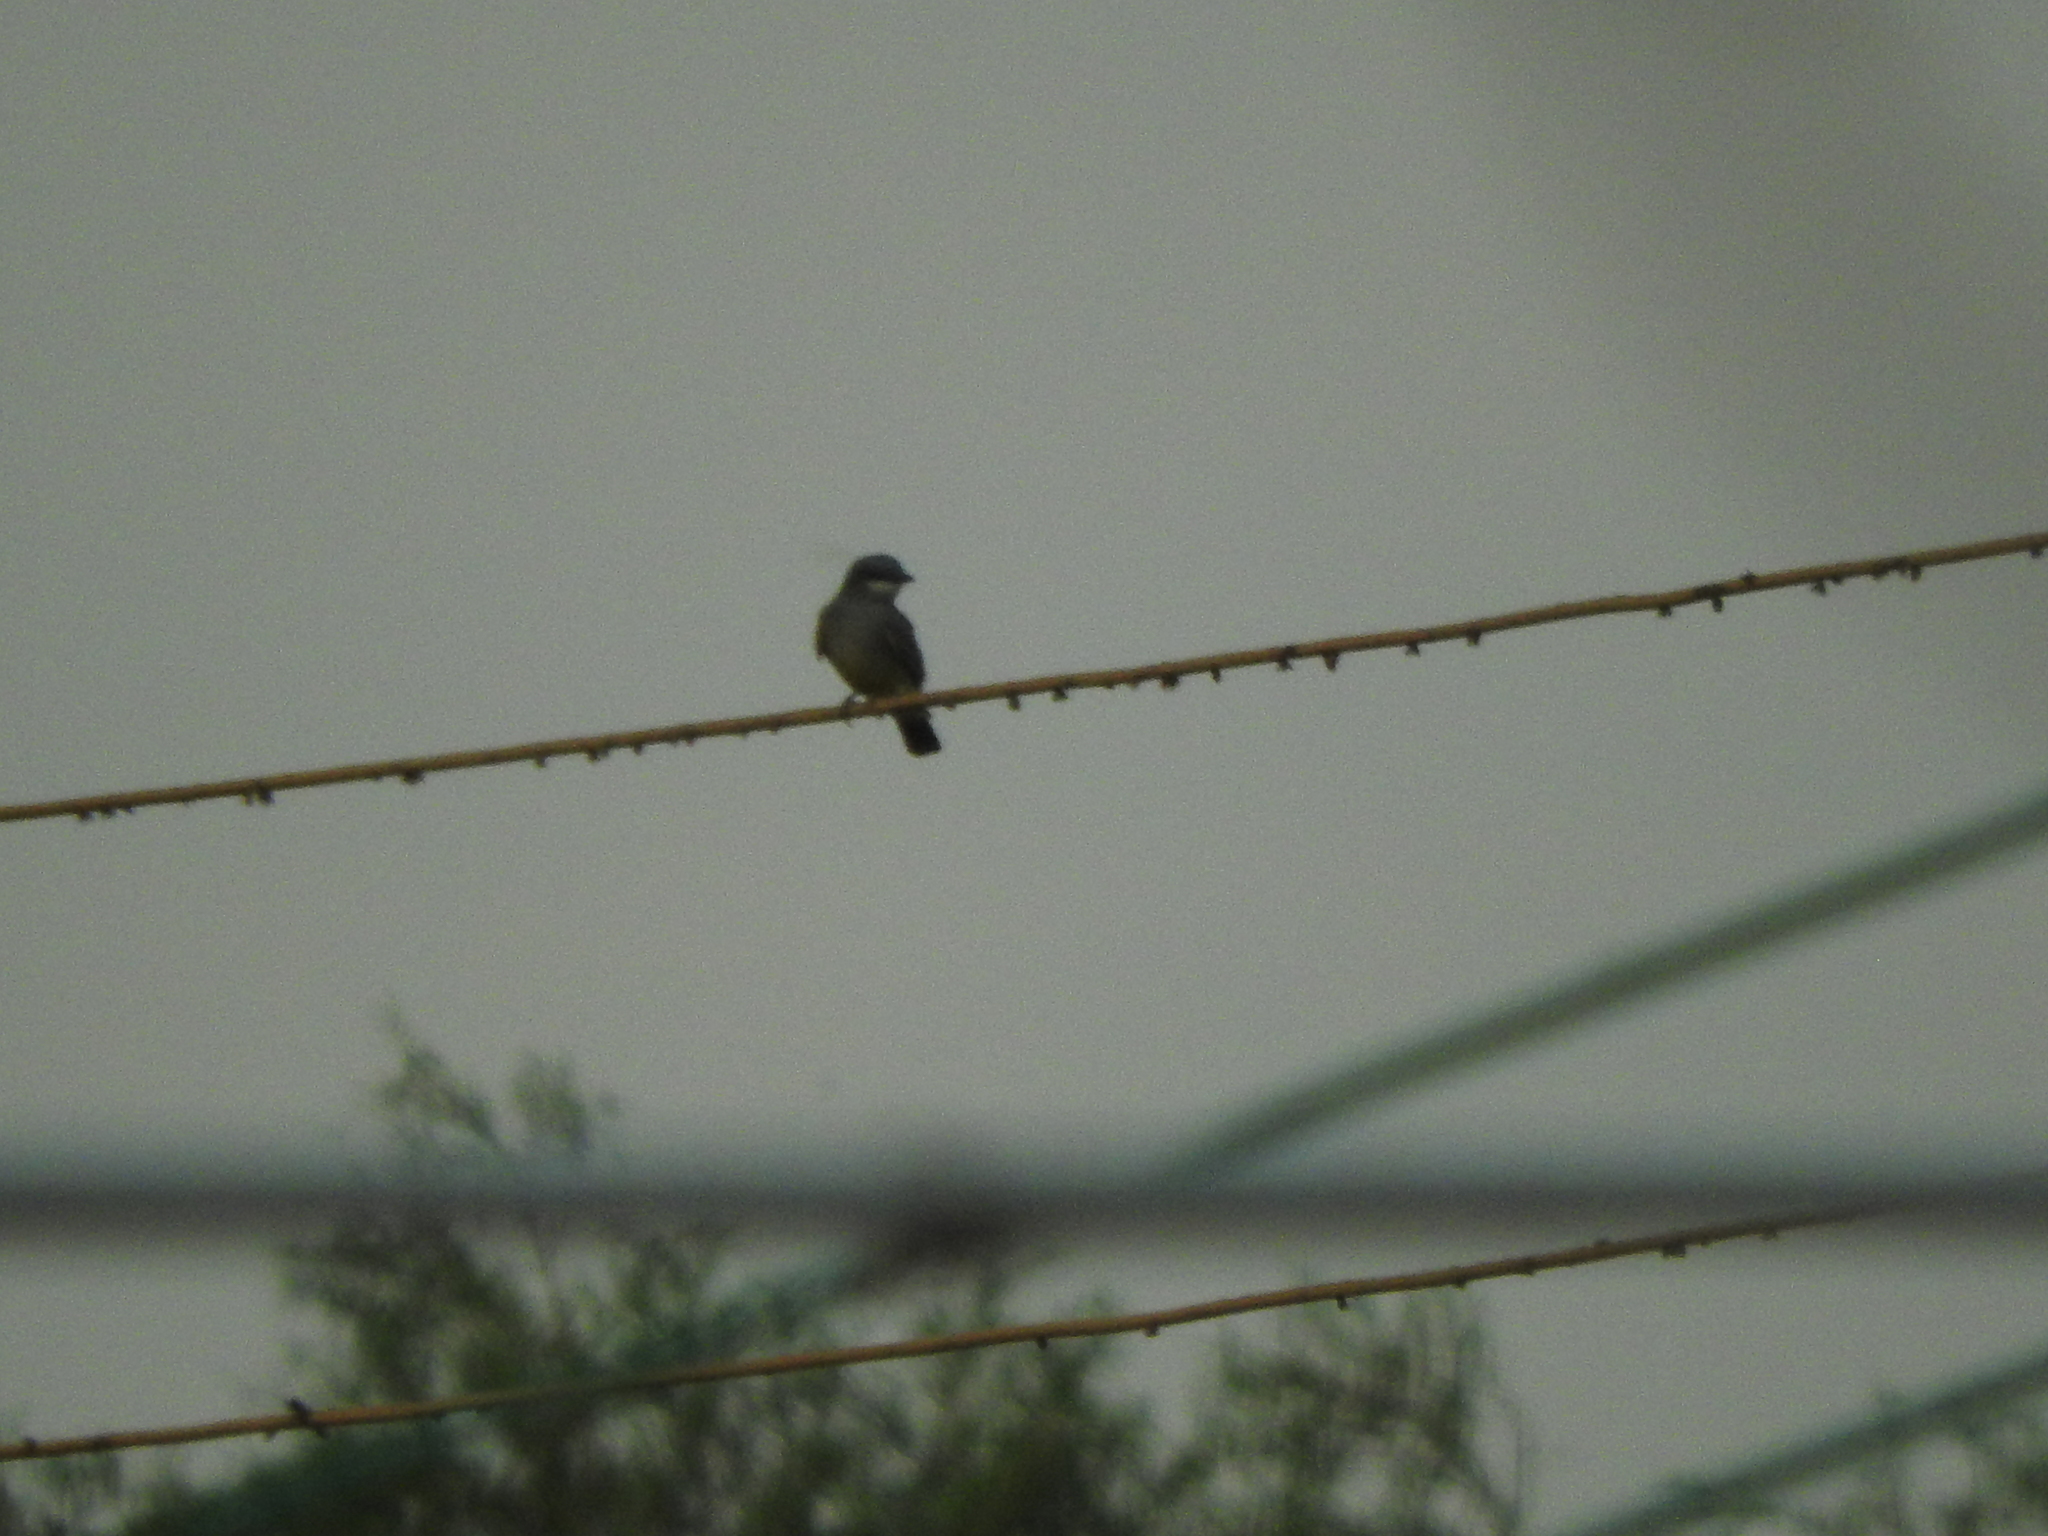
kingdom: Animalia
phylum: Chordata
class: Aves
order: Passeriformes
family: Tyrannidae
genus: Tyrannus
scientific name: Tyrannus vociferans
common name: Cassin's kingbird
